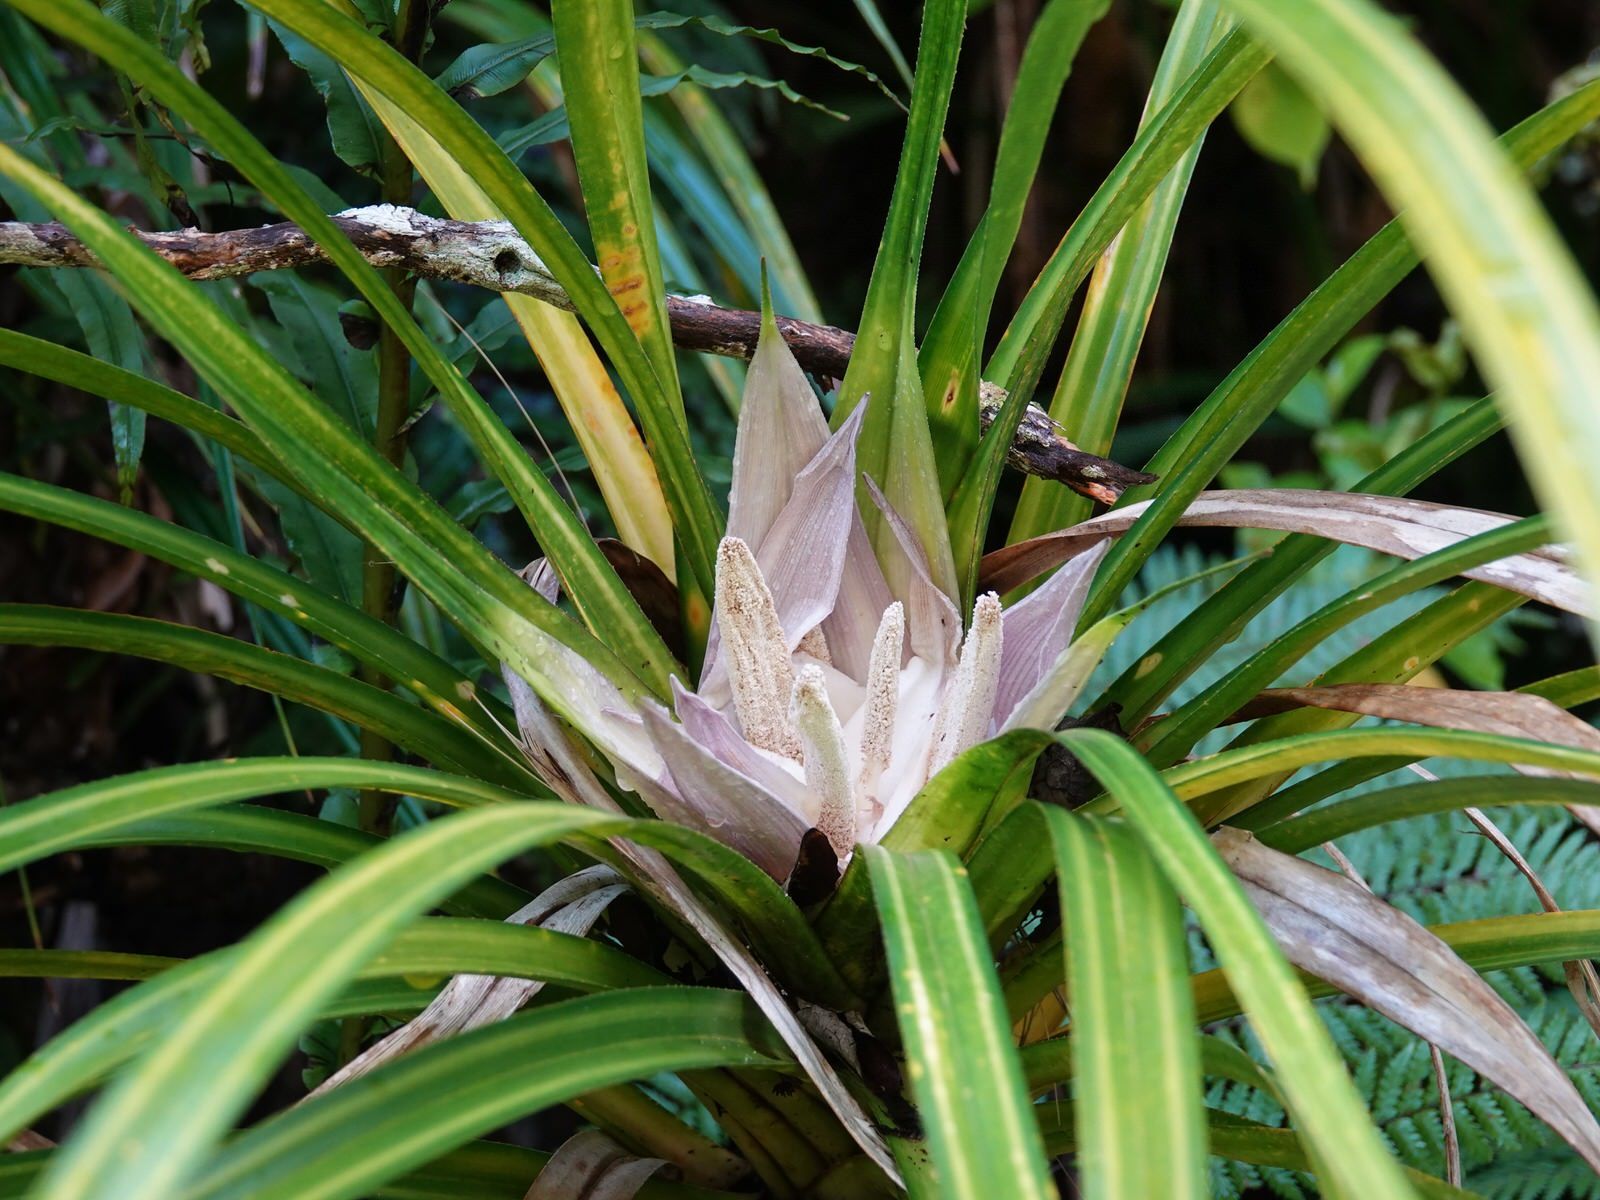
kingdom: Plantae
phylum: Tracheophyta
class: Liliopsida
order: Pandanales
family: Pandanaceae
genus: Freycinetia
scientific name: Freycinetia banksii
